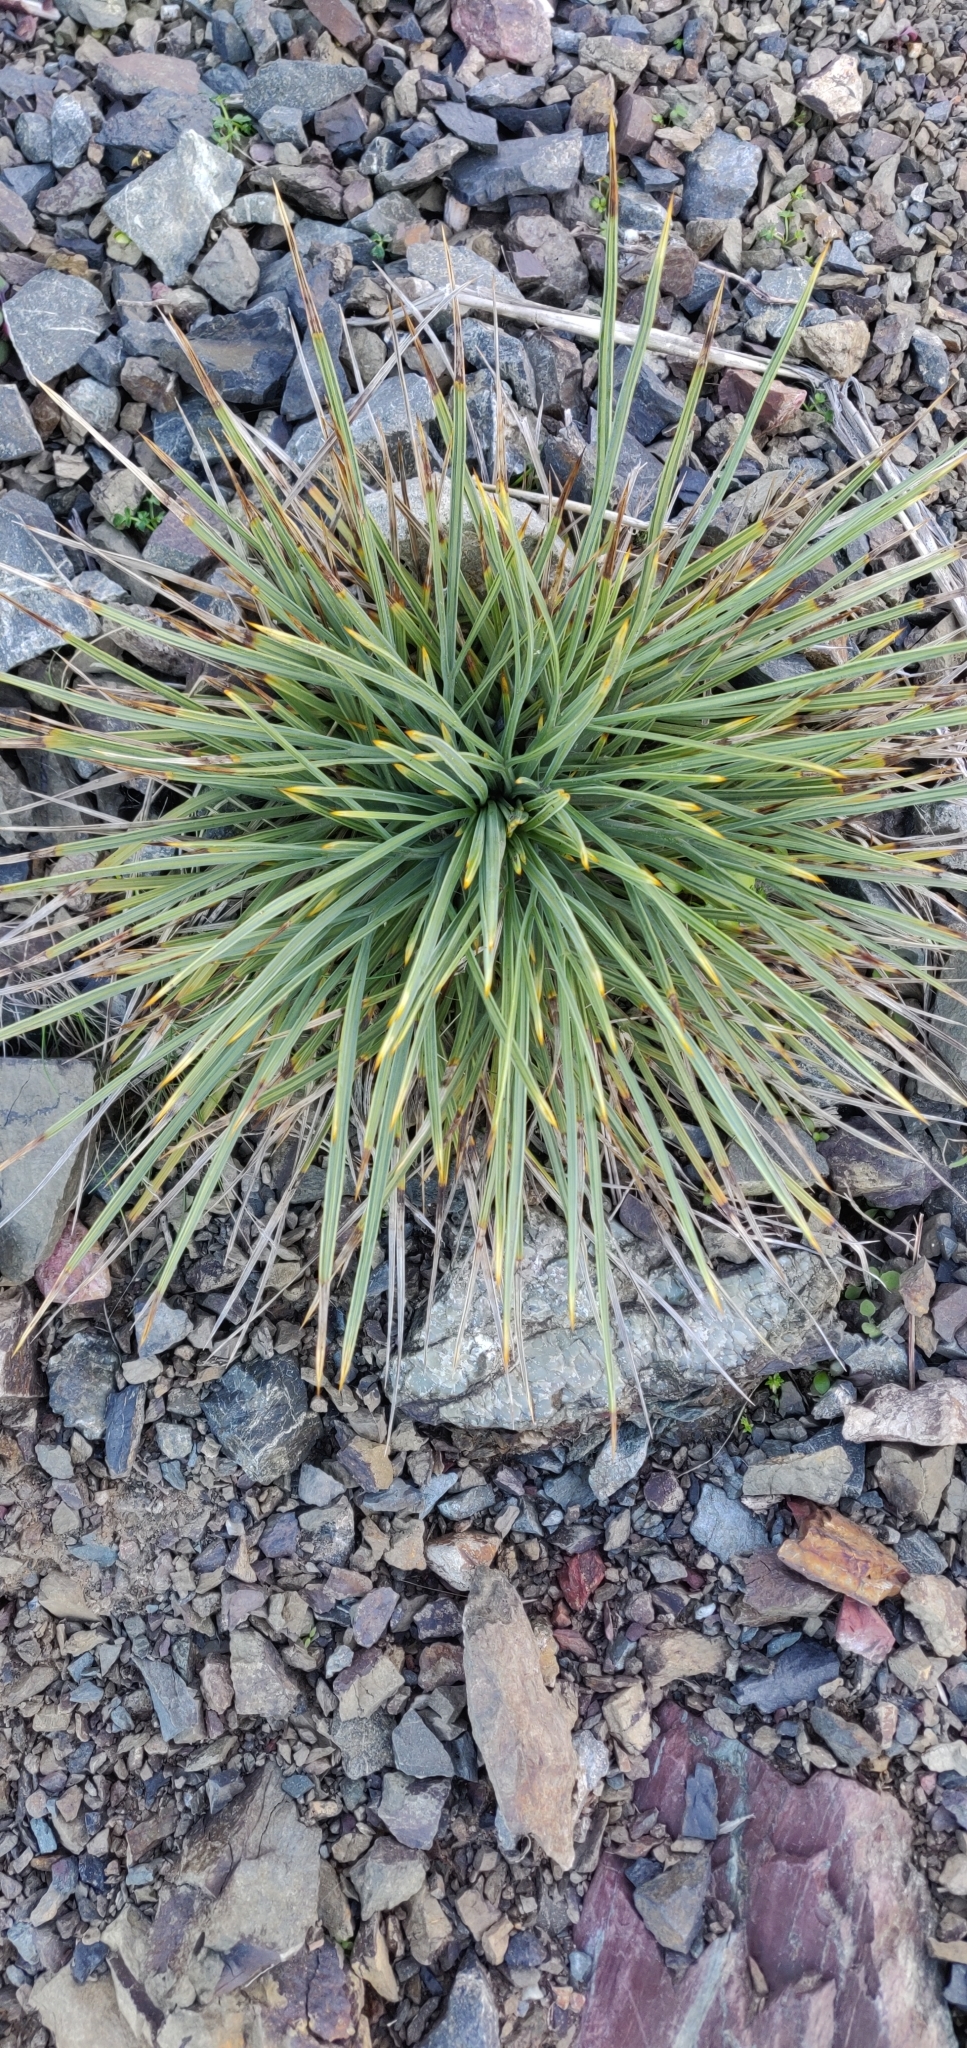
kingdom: Plantae
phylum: Tracheophyta
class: Magnoliopsida
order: Apiales
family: Apiaceae
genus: Aciphylla
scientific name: Aciphylla squarrosa
